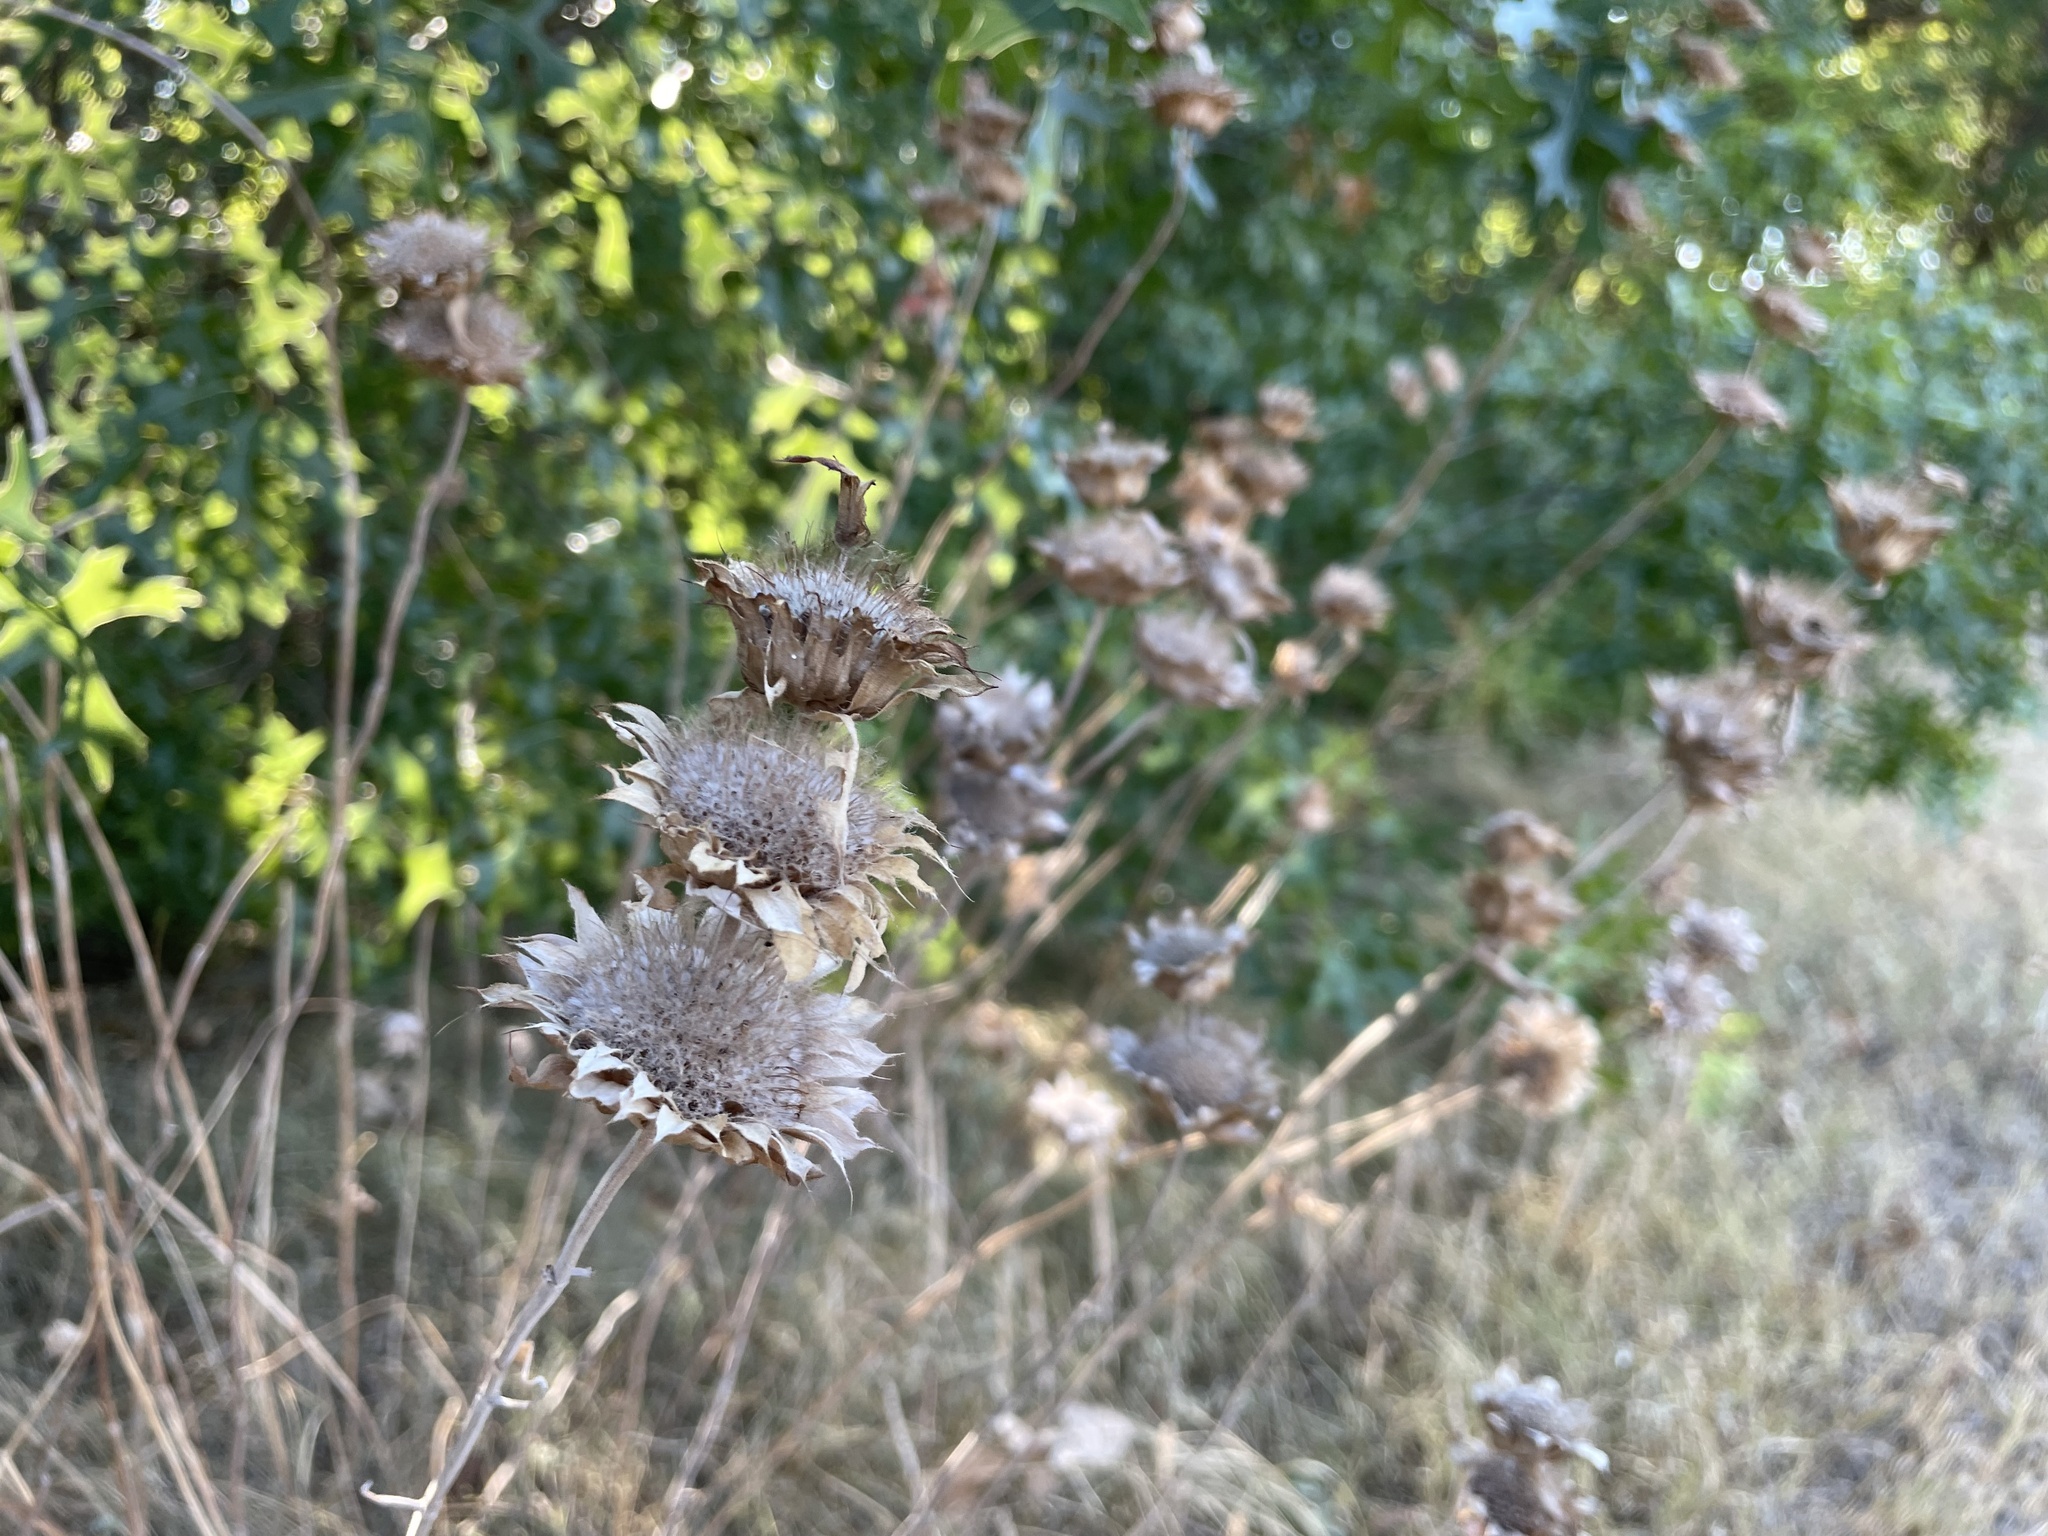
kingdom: Plantae
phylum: Tracheophyta
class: Magnoliopsida
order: Lamiales
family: Lamiaceae
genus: Monarda
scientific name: Monarda citriodora
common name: Lemon beebalm
